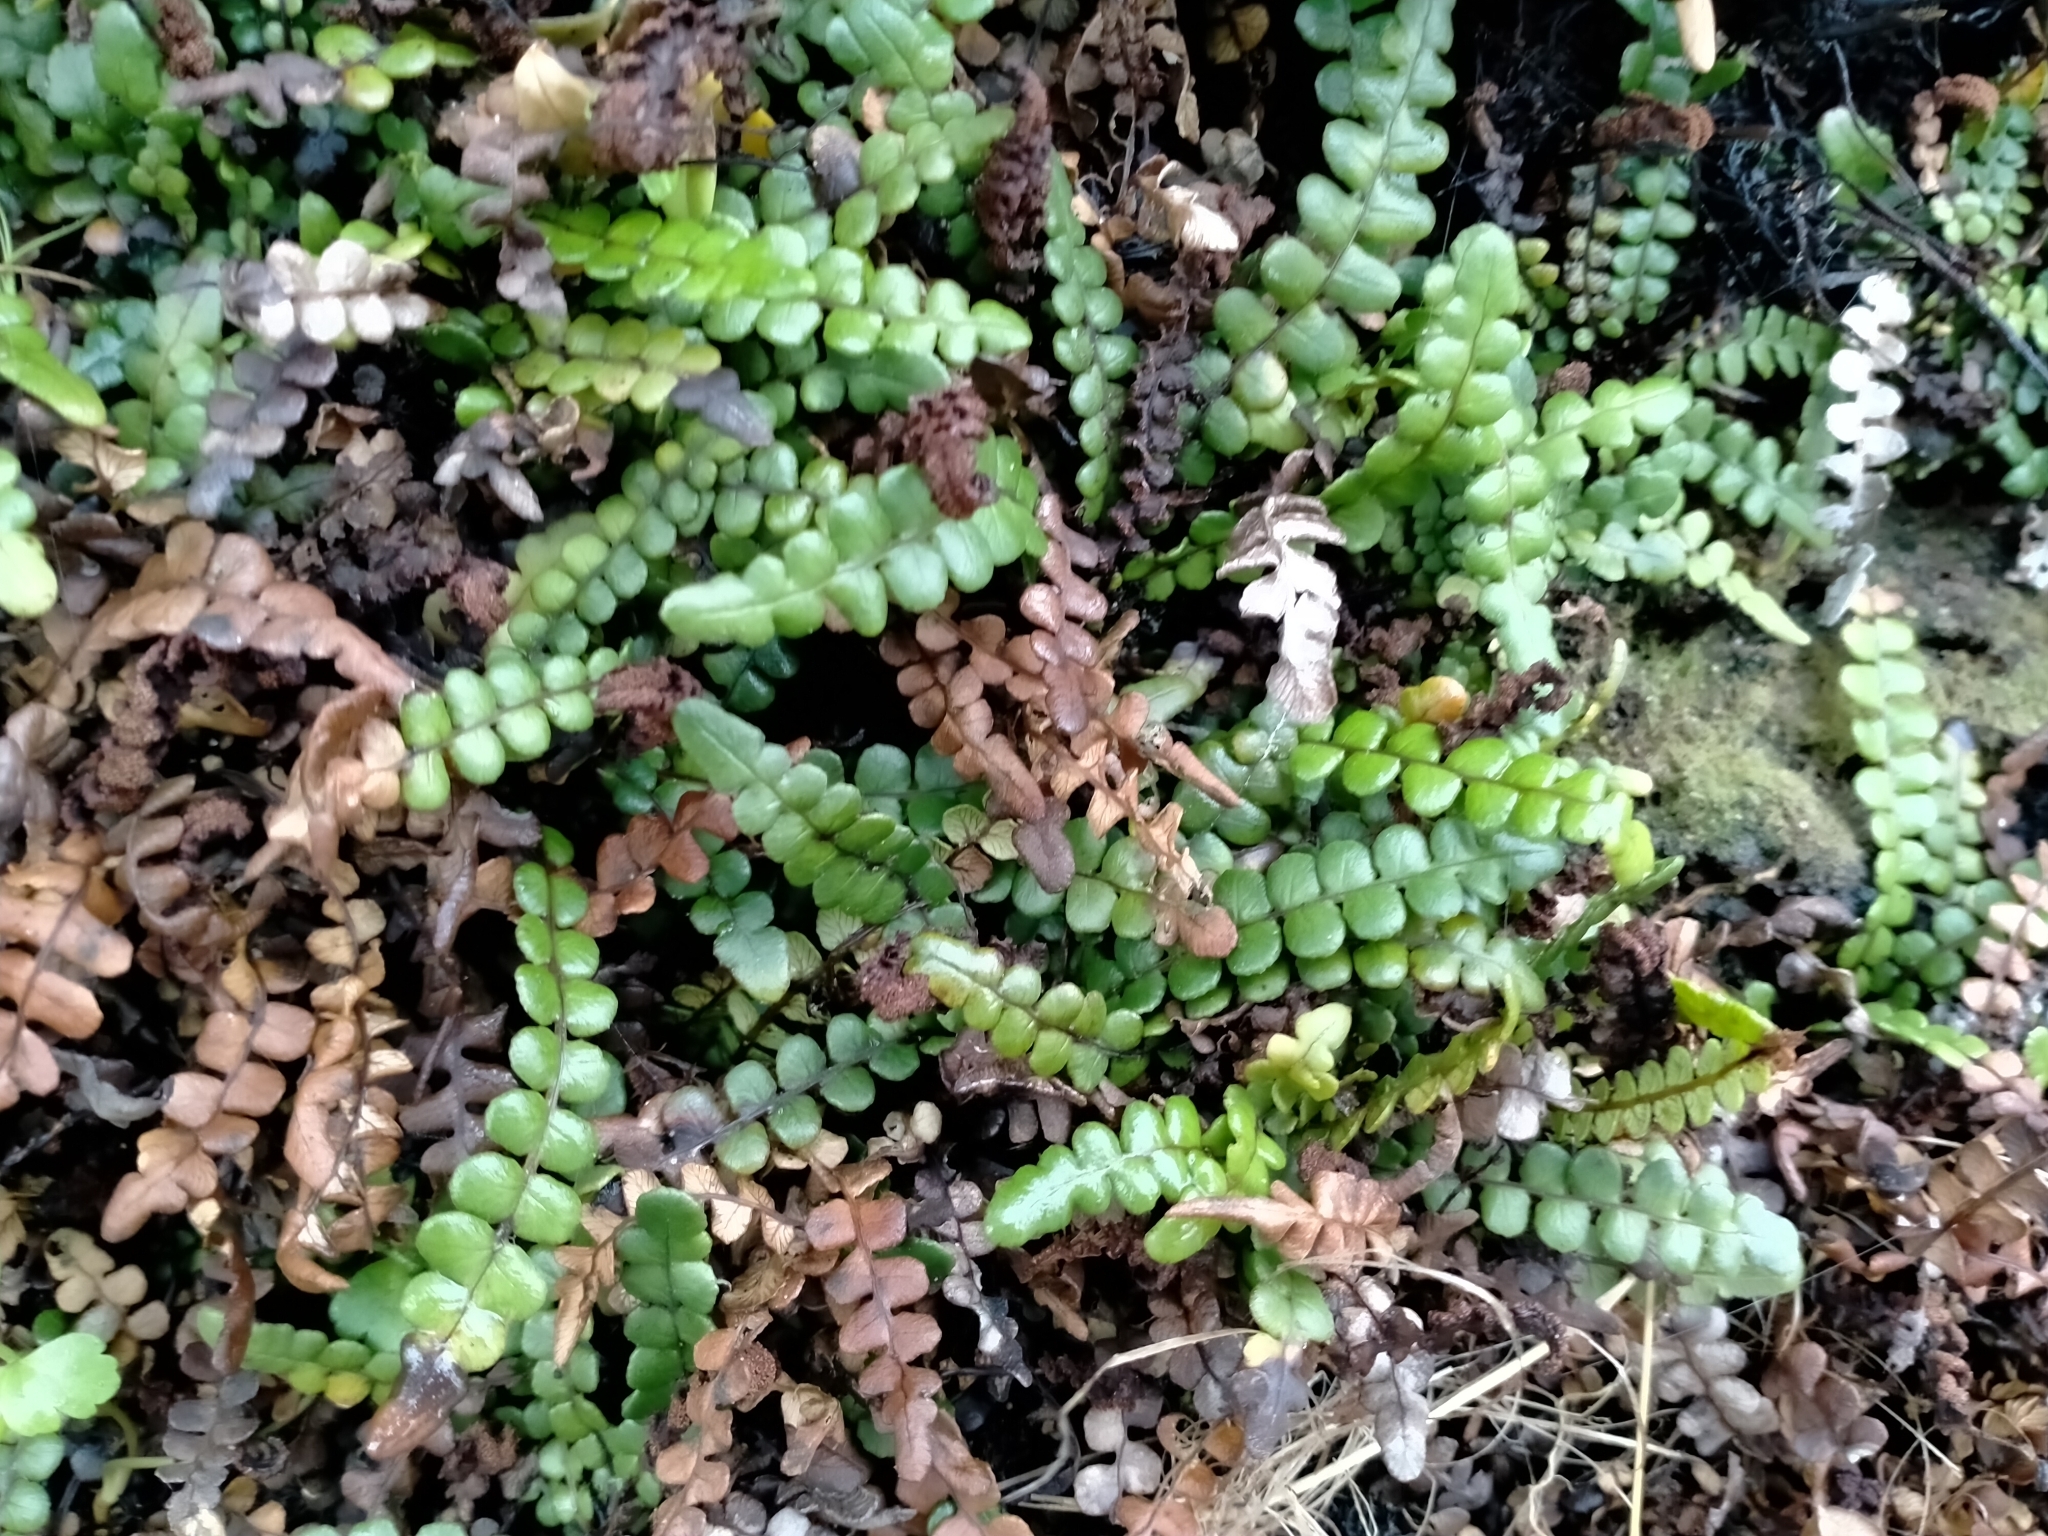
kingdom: Plantae
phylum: Tracheophyta
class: Polypodiopsida
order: Polypodiales
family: Blechnaceae
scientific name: Blechnaceae
